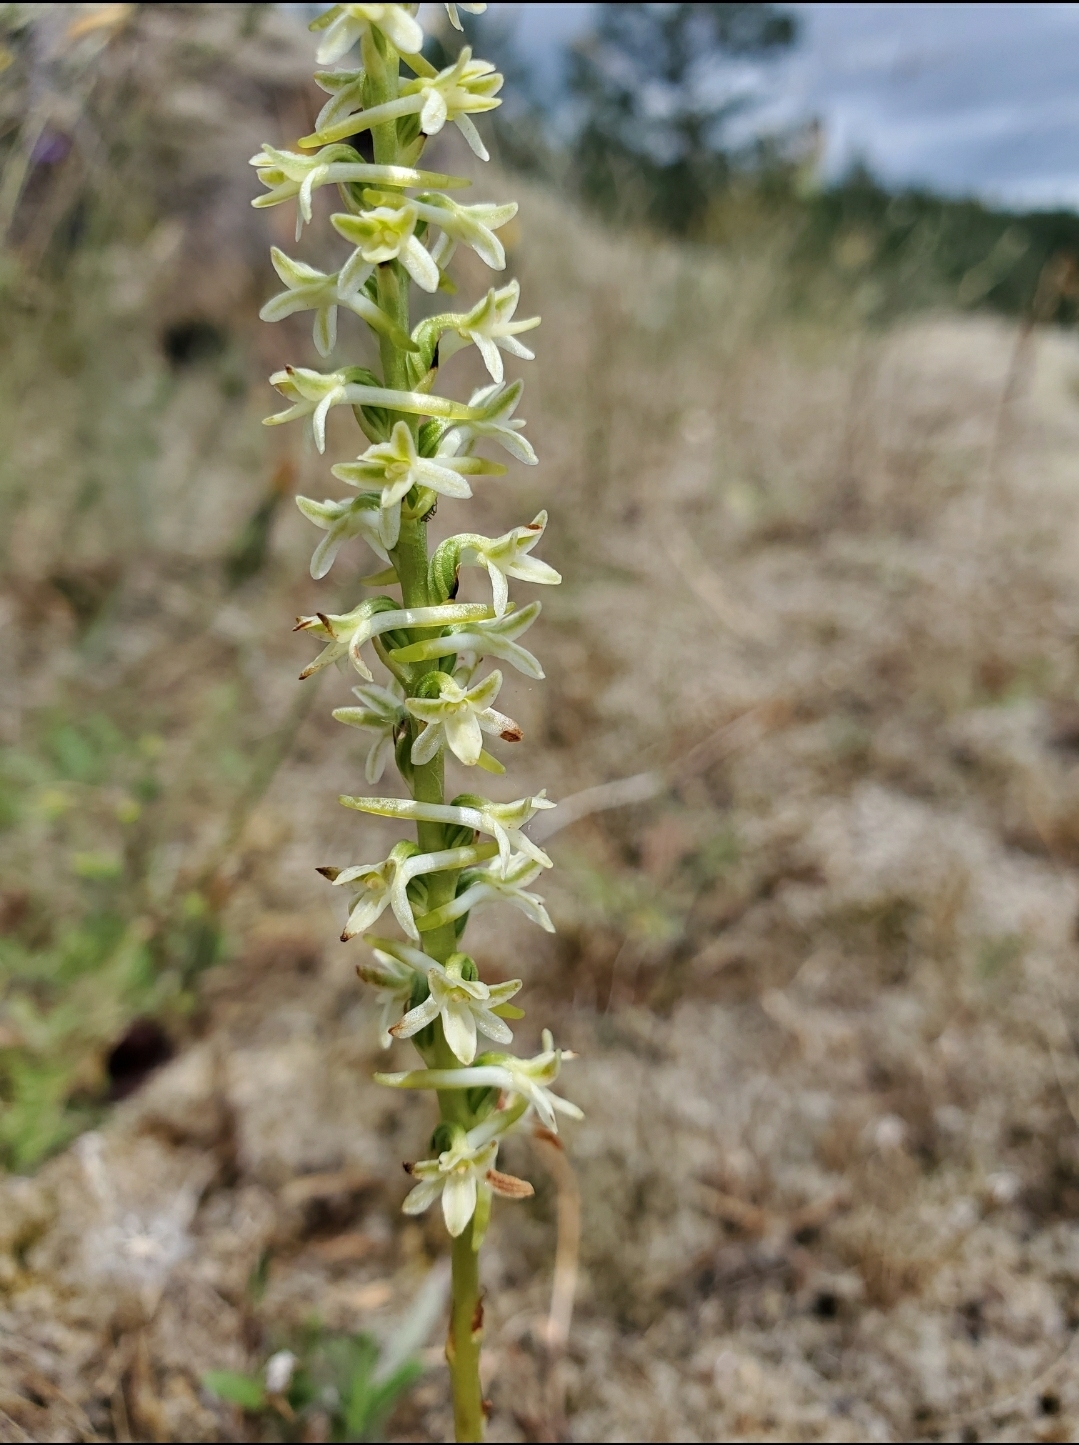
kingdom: Plantae
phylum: Tracheophyta
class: Liliopsida
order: Asparagales
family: Orchidaceae
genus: Platanthera
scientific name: Platanthera transversa
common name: Royal rein orchid
